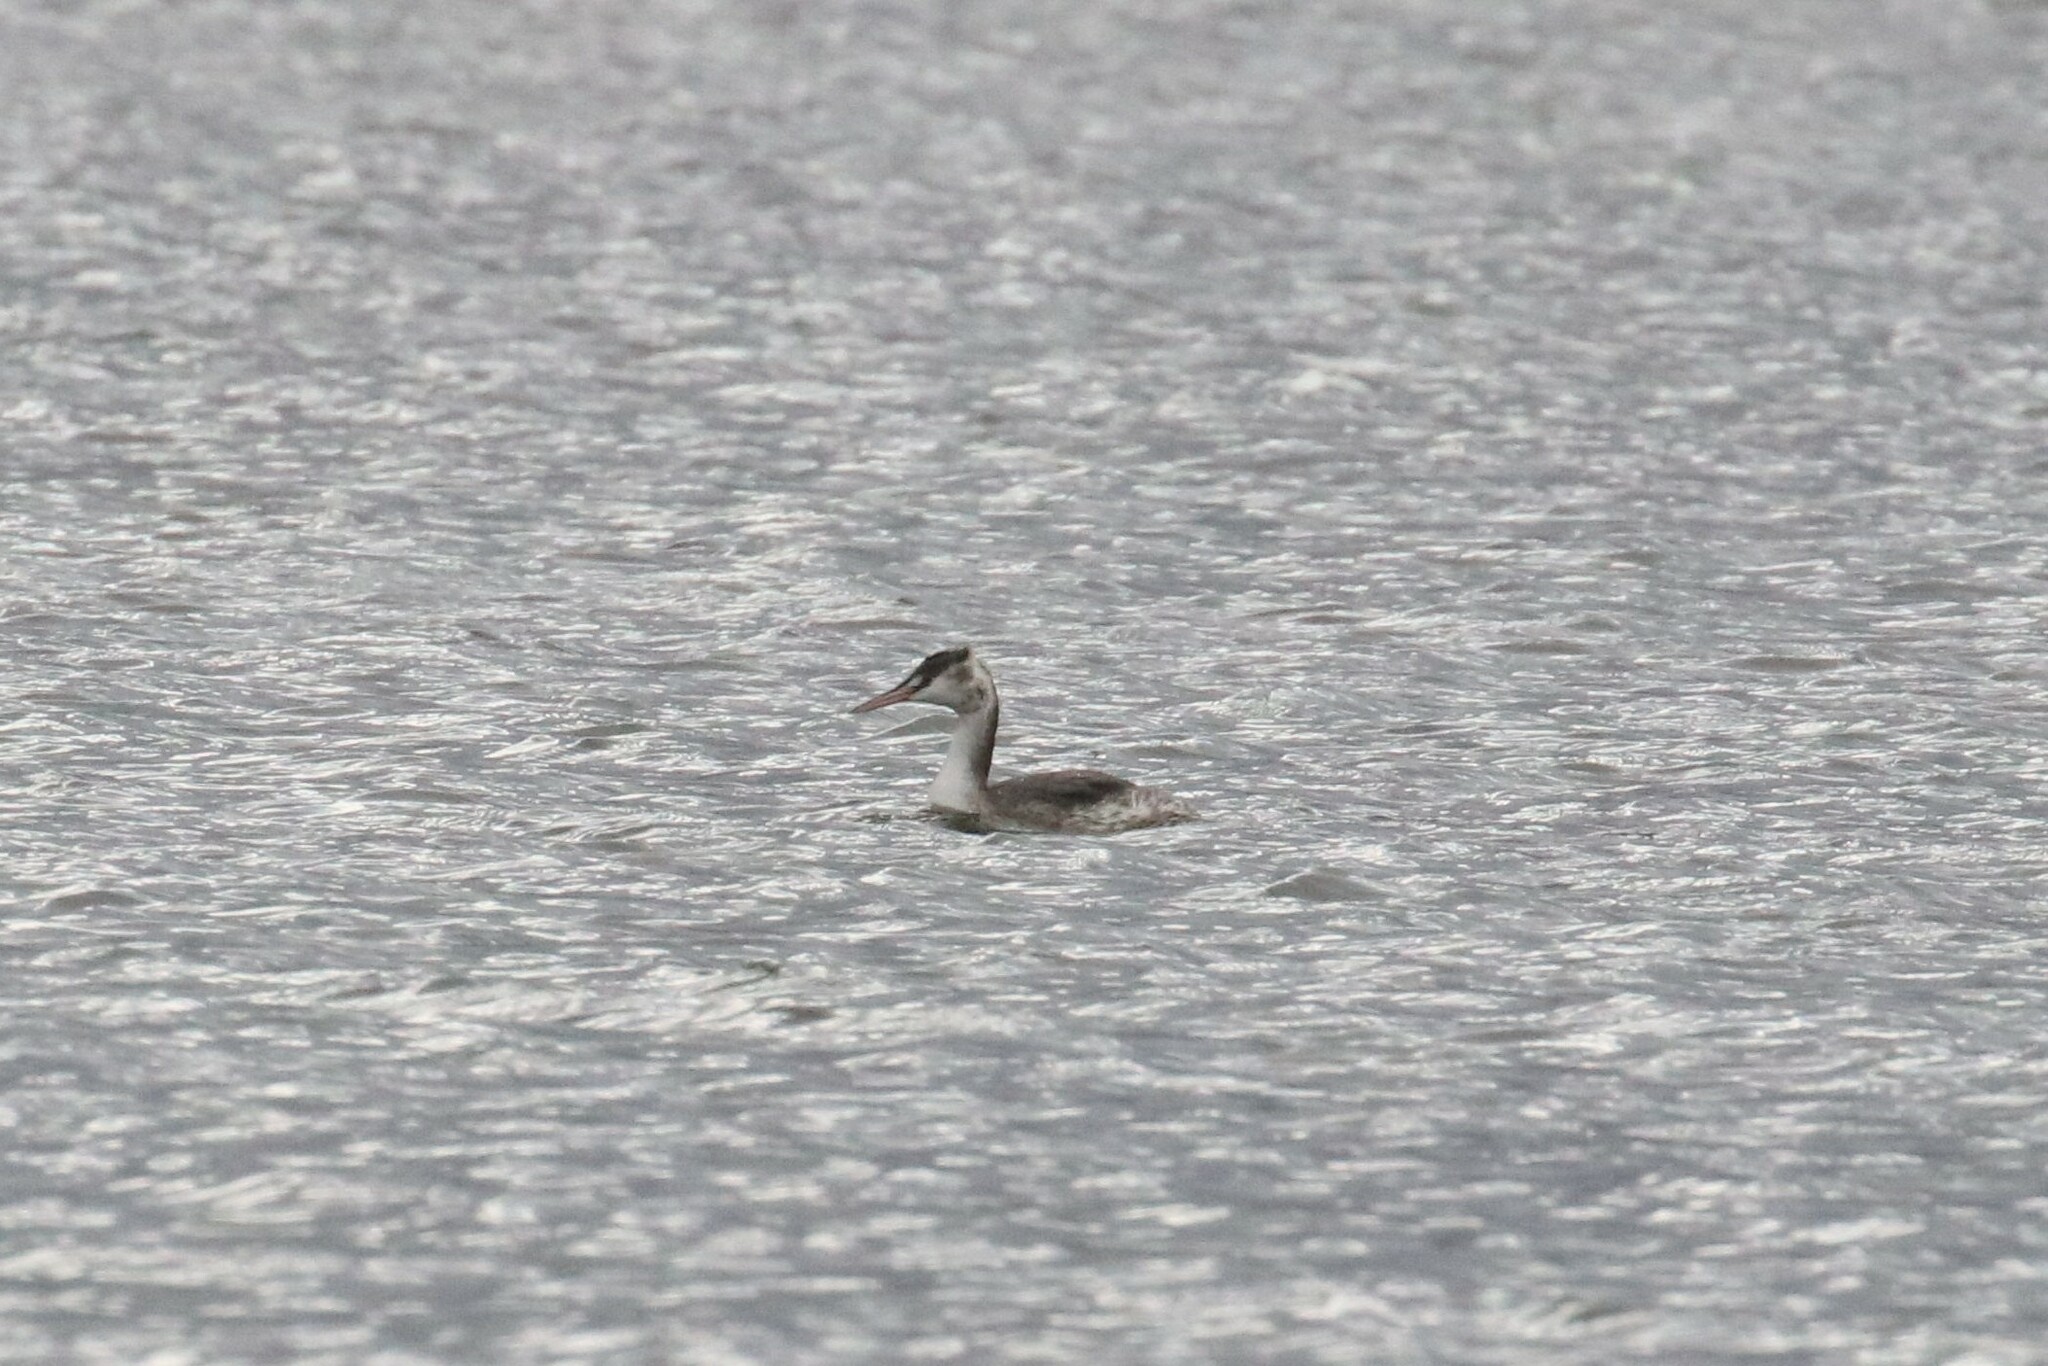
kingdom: Animalia
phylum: Chordata
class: Aves
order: Podicipediformes
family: Podicipedidae
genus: Podiceps
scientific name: Podiceps cristatus
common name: Great crested grebe
